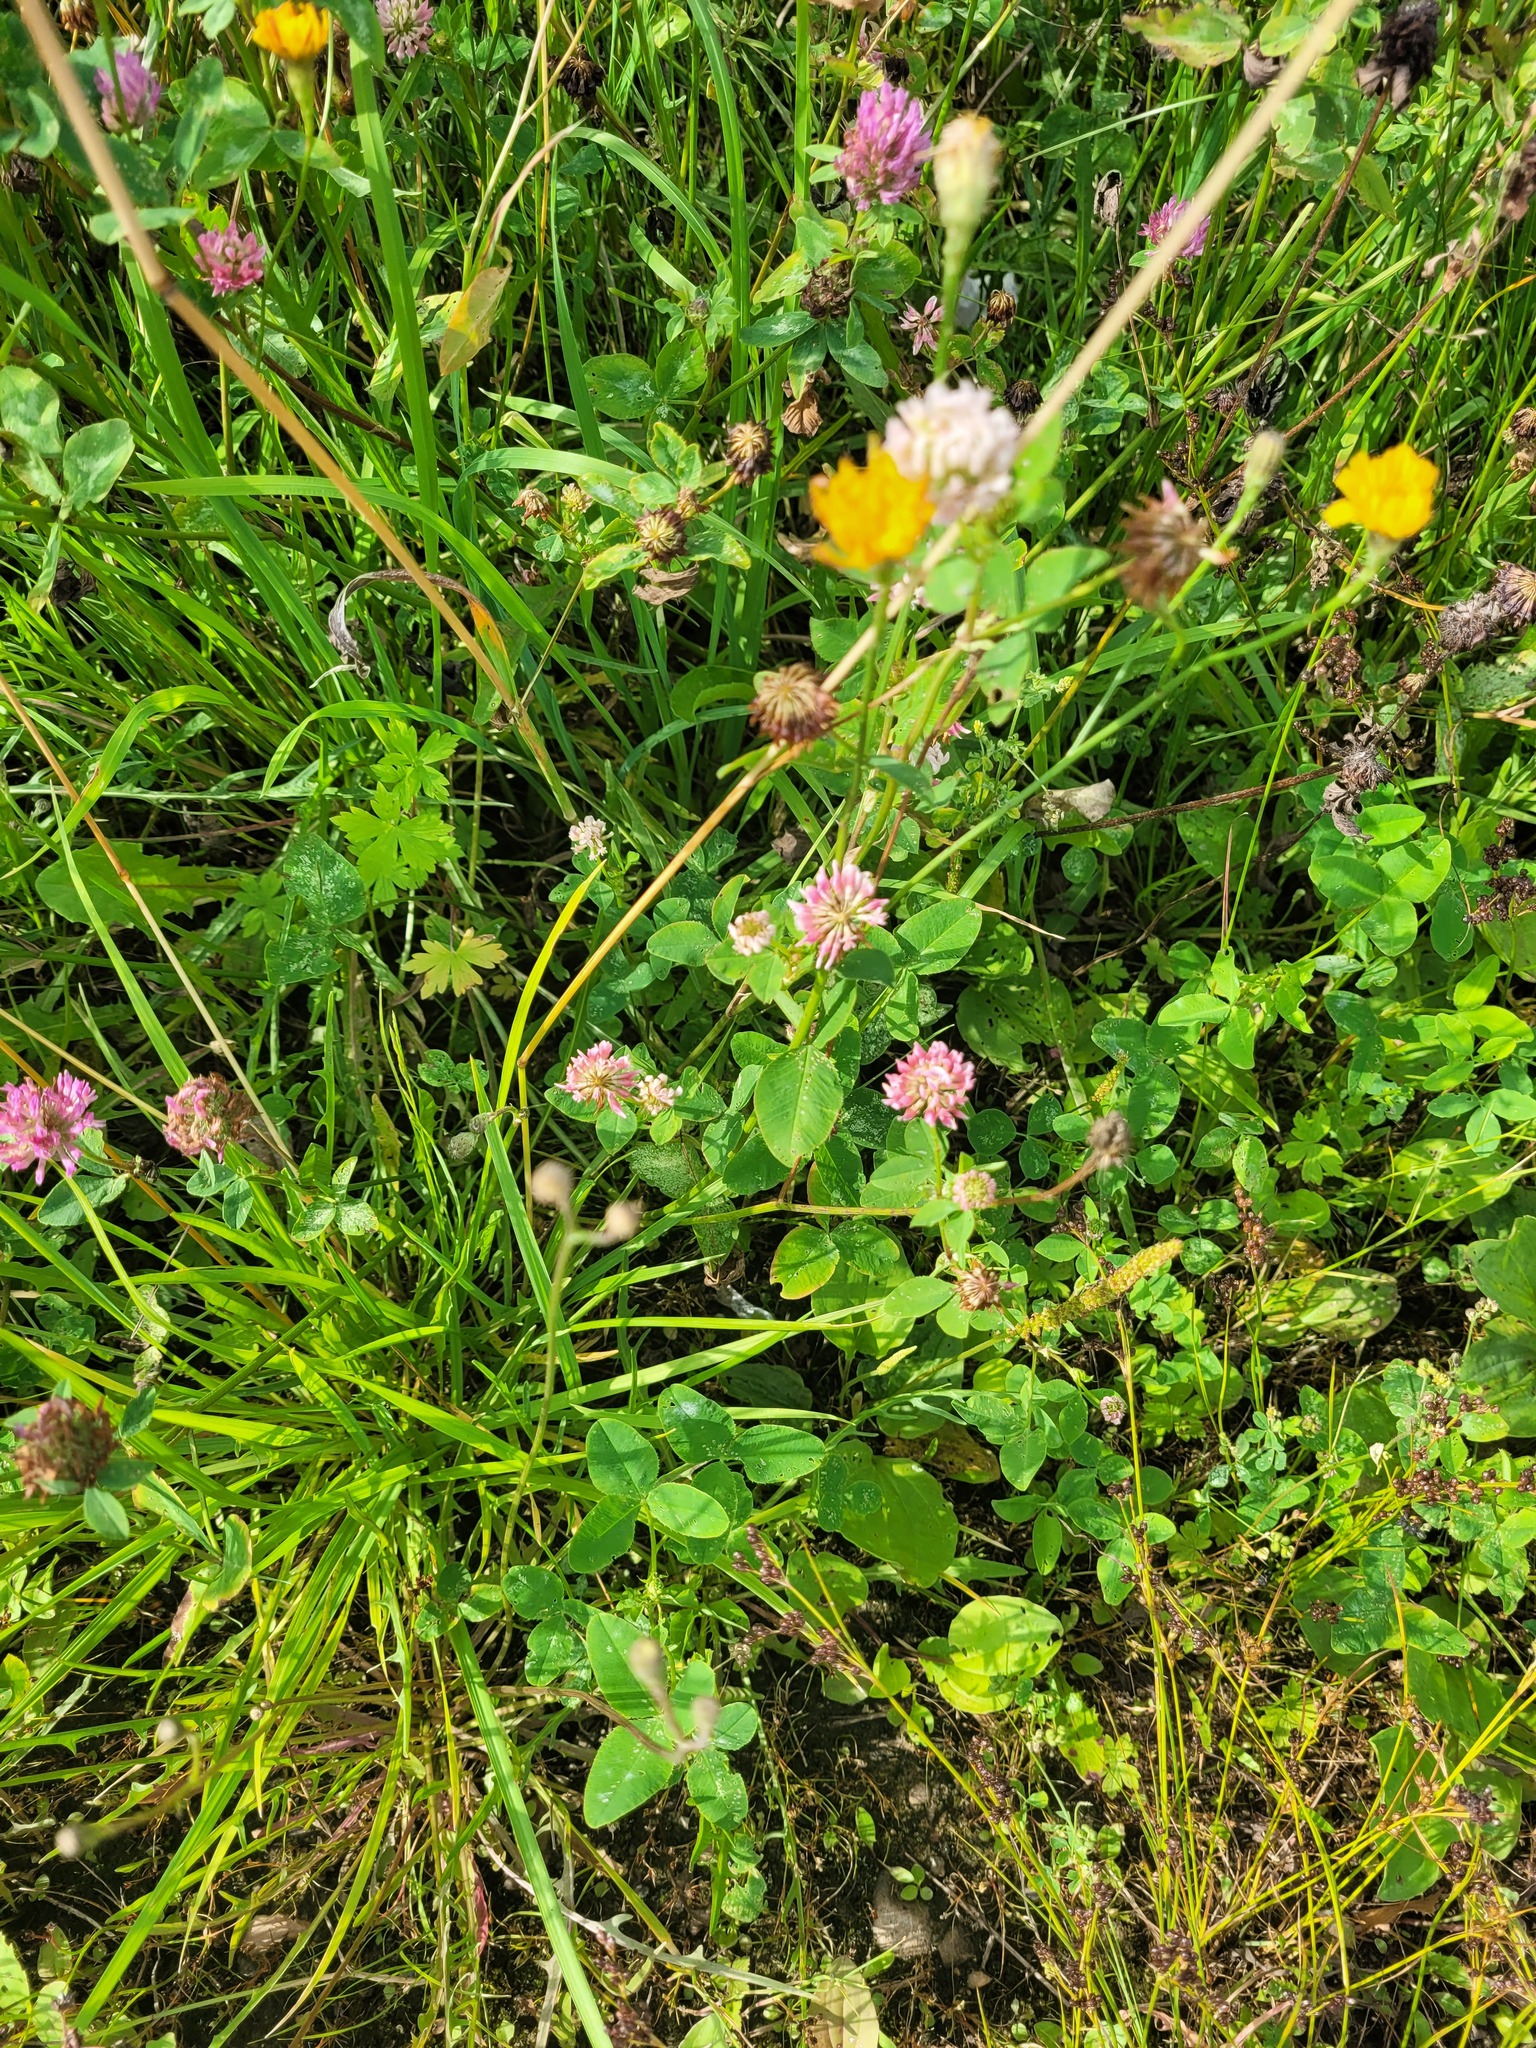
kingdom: Plantae
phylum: Tracheophyta
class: Magnoliopsida
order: Fabales
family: Fabaceae
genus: Trifolium
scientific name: Trifolium hybridum
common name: Alsike clover
